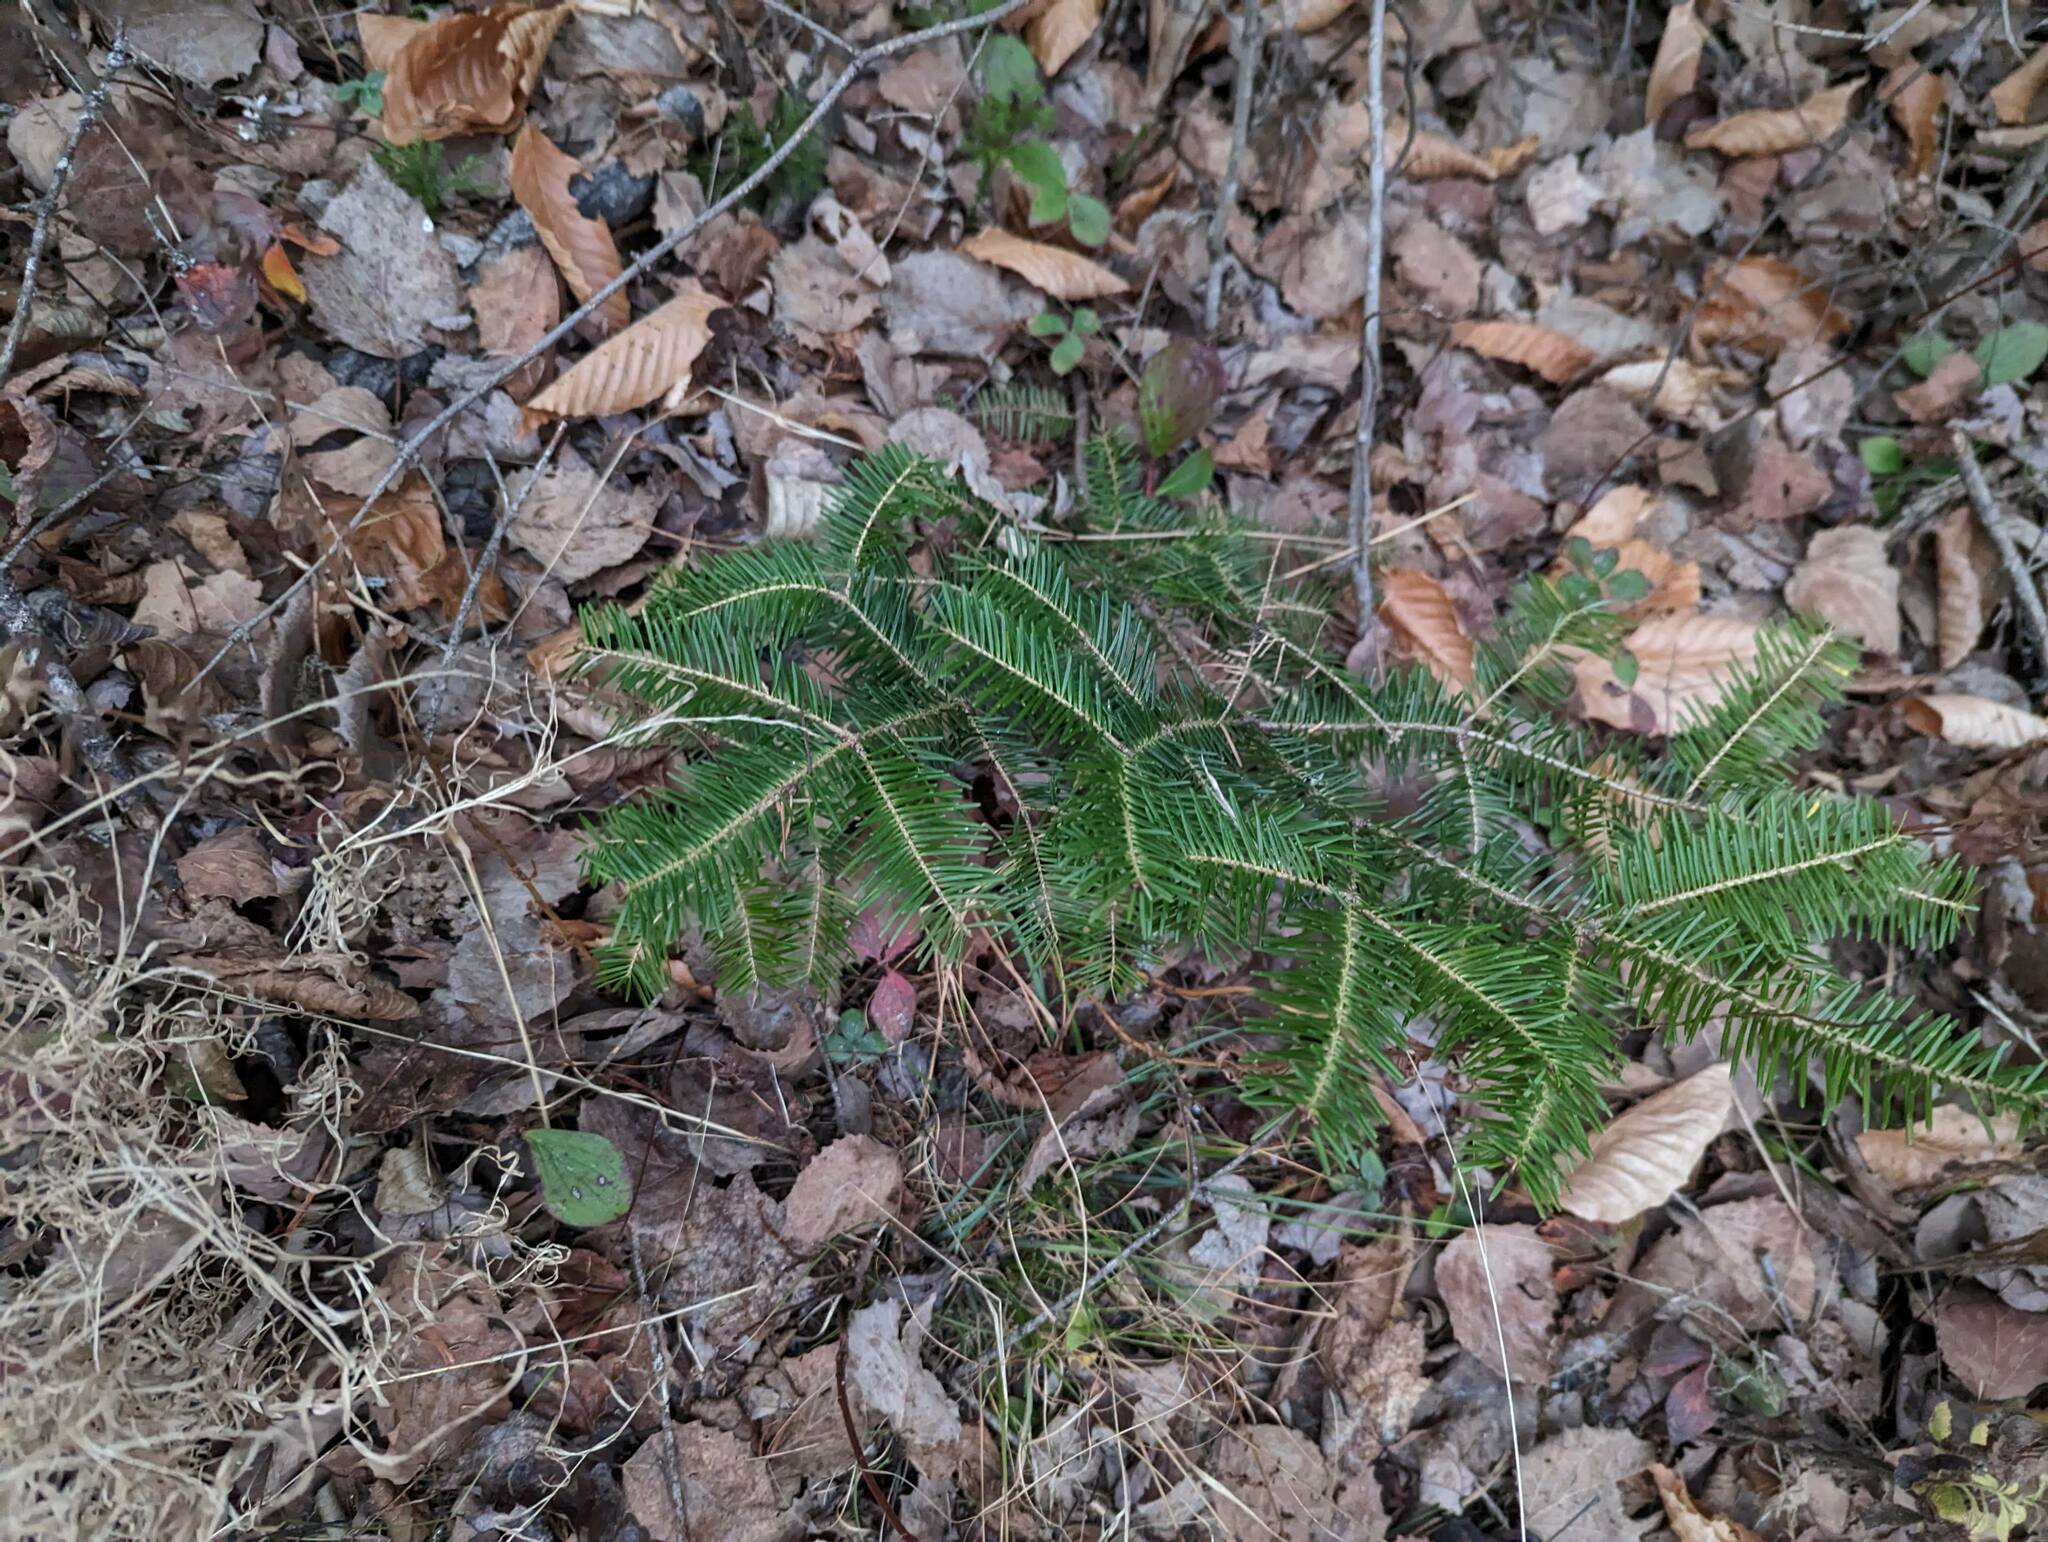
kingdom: Plantae
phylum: Tracheophyta
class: Pinopsida
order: Pinales
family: Pinaceae
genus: Abies
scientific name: Abies balsamea
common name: Balsam fir
